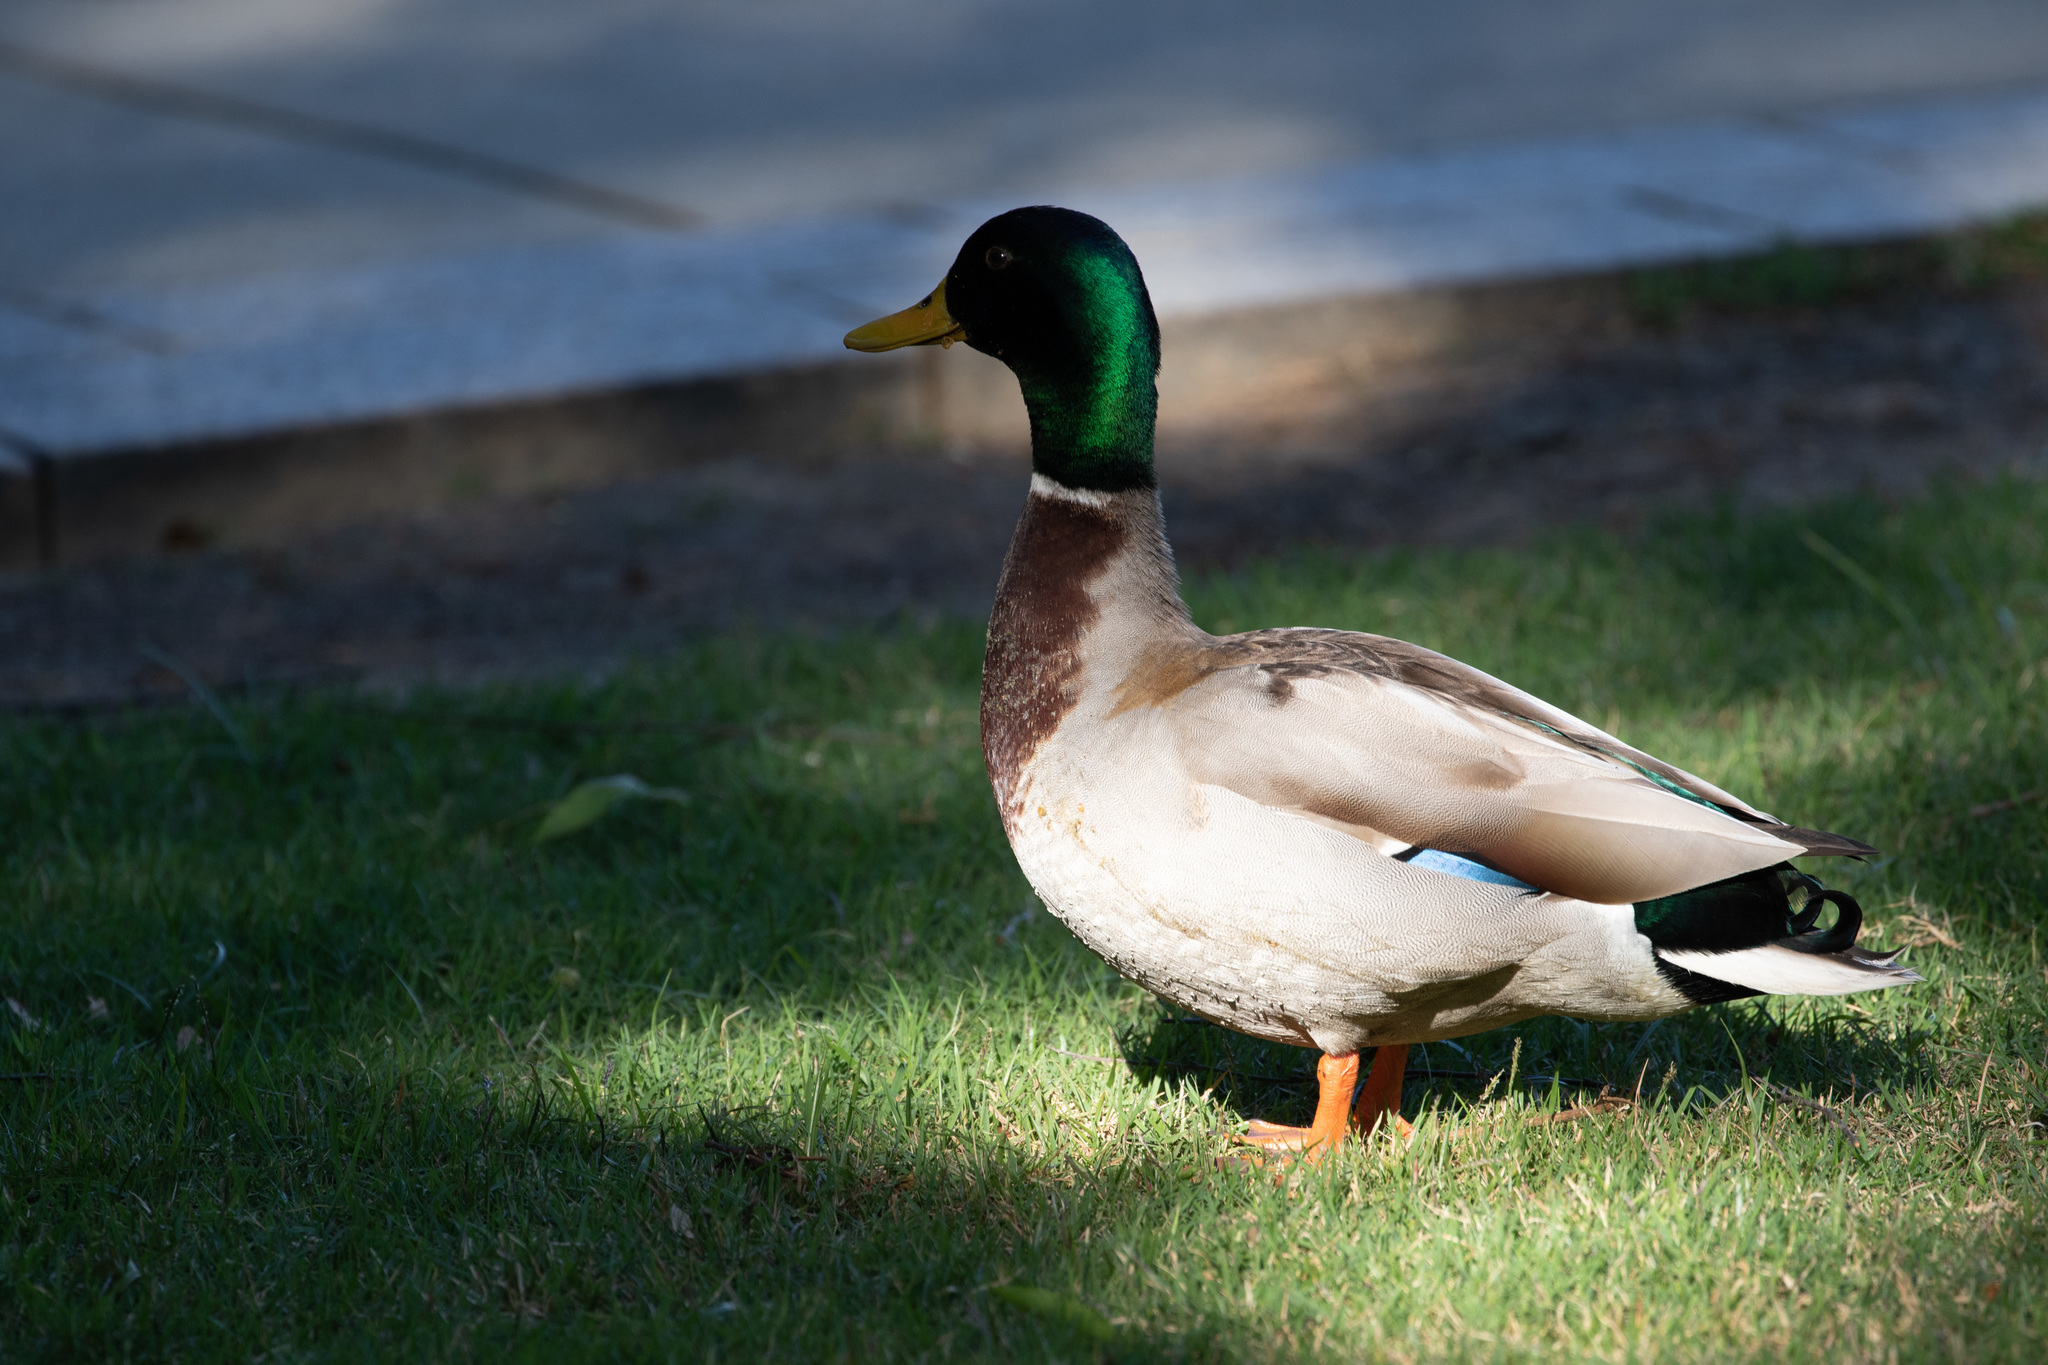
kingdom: Animalia
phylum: Chordata
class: Aves
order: Anseriformes
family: Anatidae
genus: Anas
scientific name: Anas platyrhynchos
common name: Mallard
